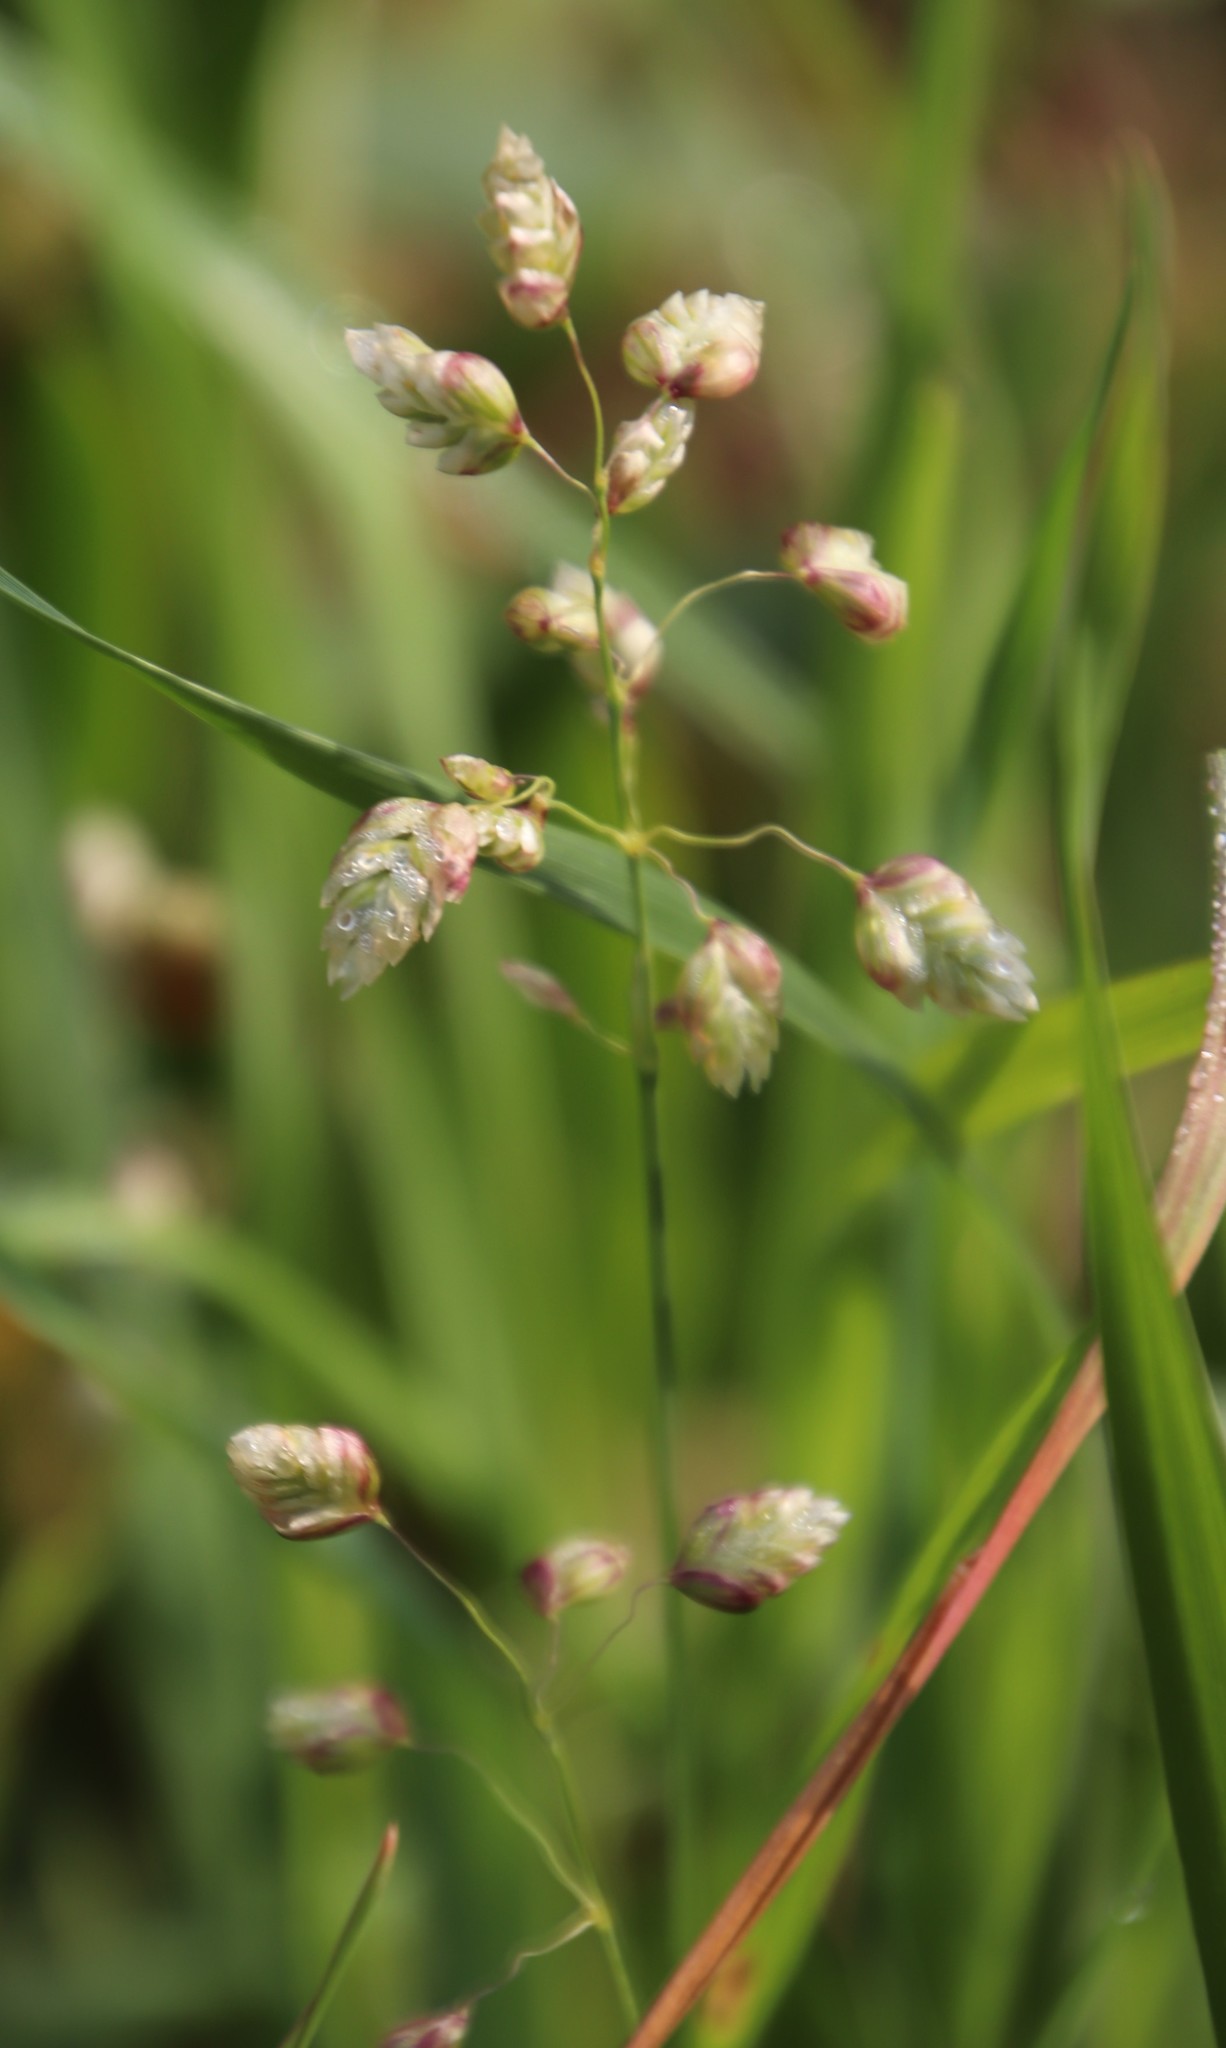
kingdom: Plantae
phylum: Tracheophyta
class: Liliopsida
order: Poales
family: Poaceae
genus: Briza
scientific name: Briza maxima
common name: Big quakinggrass
